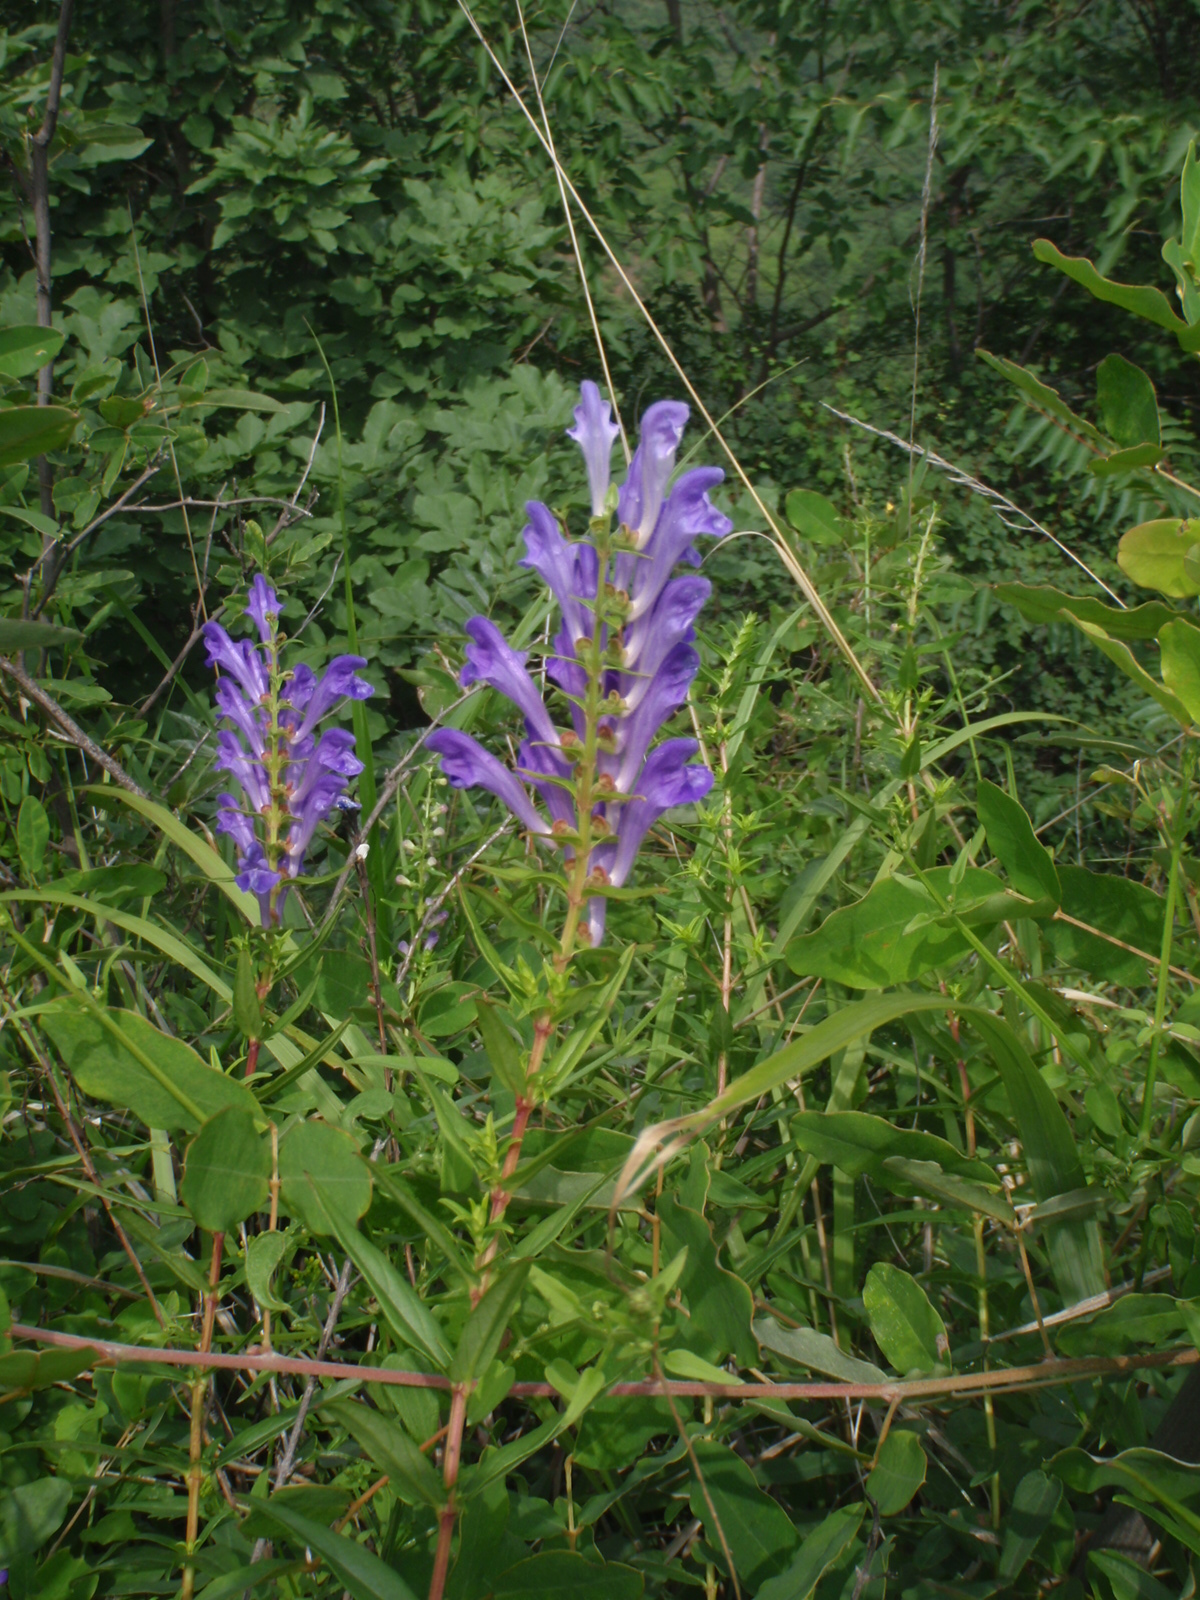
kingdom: Plantae
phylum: Tracheophyta
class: Magnoliopsida
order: Lamiales
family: Lamiaceae
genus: Scutellaria
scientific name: Scutellaria baicalensis
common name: Baikal skullcap
